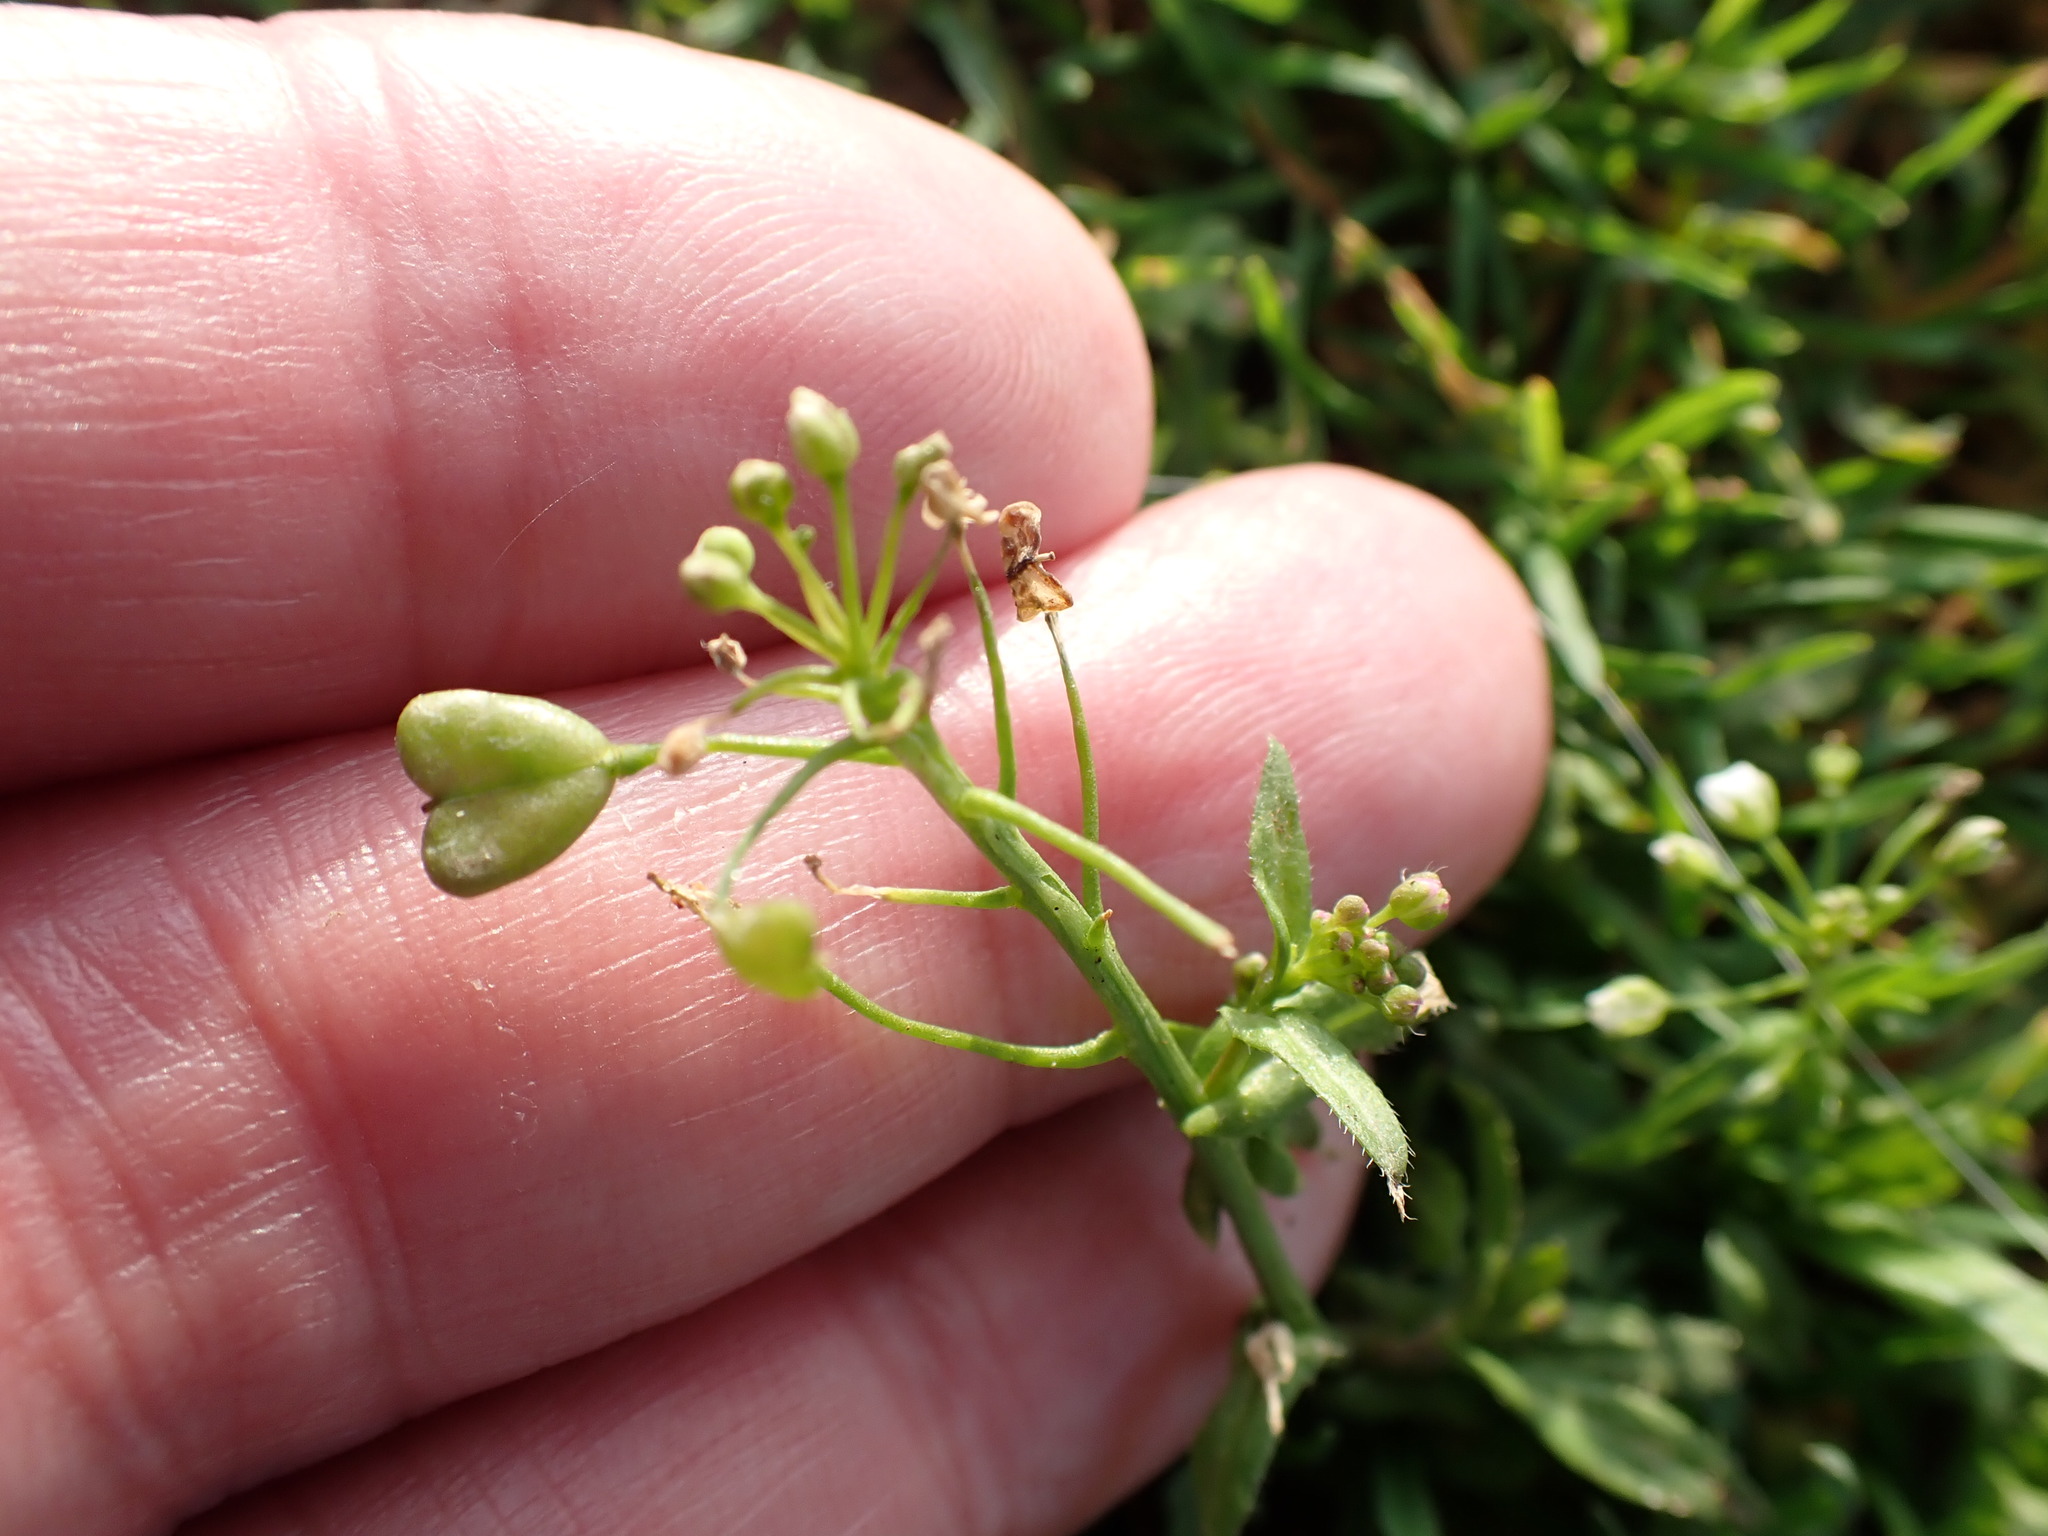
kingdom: Plantae
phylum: Tracheophyta
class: Magnoliopsida
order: Brassicales
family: Brassicaceae
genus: Capsella
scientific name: Capsella bursa-pastoris
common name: Shepherd's purse
